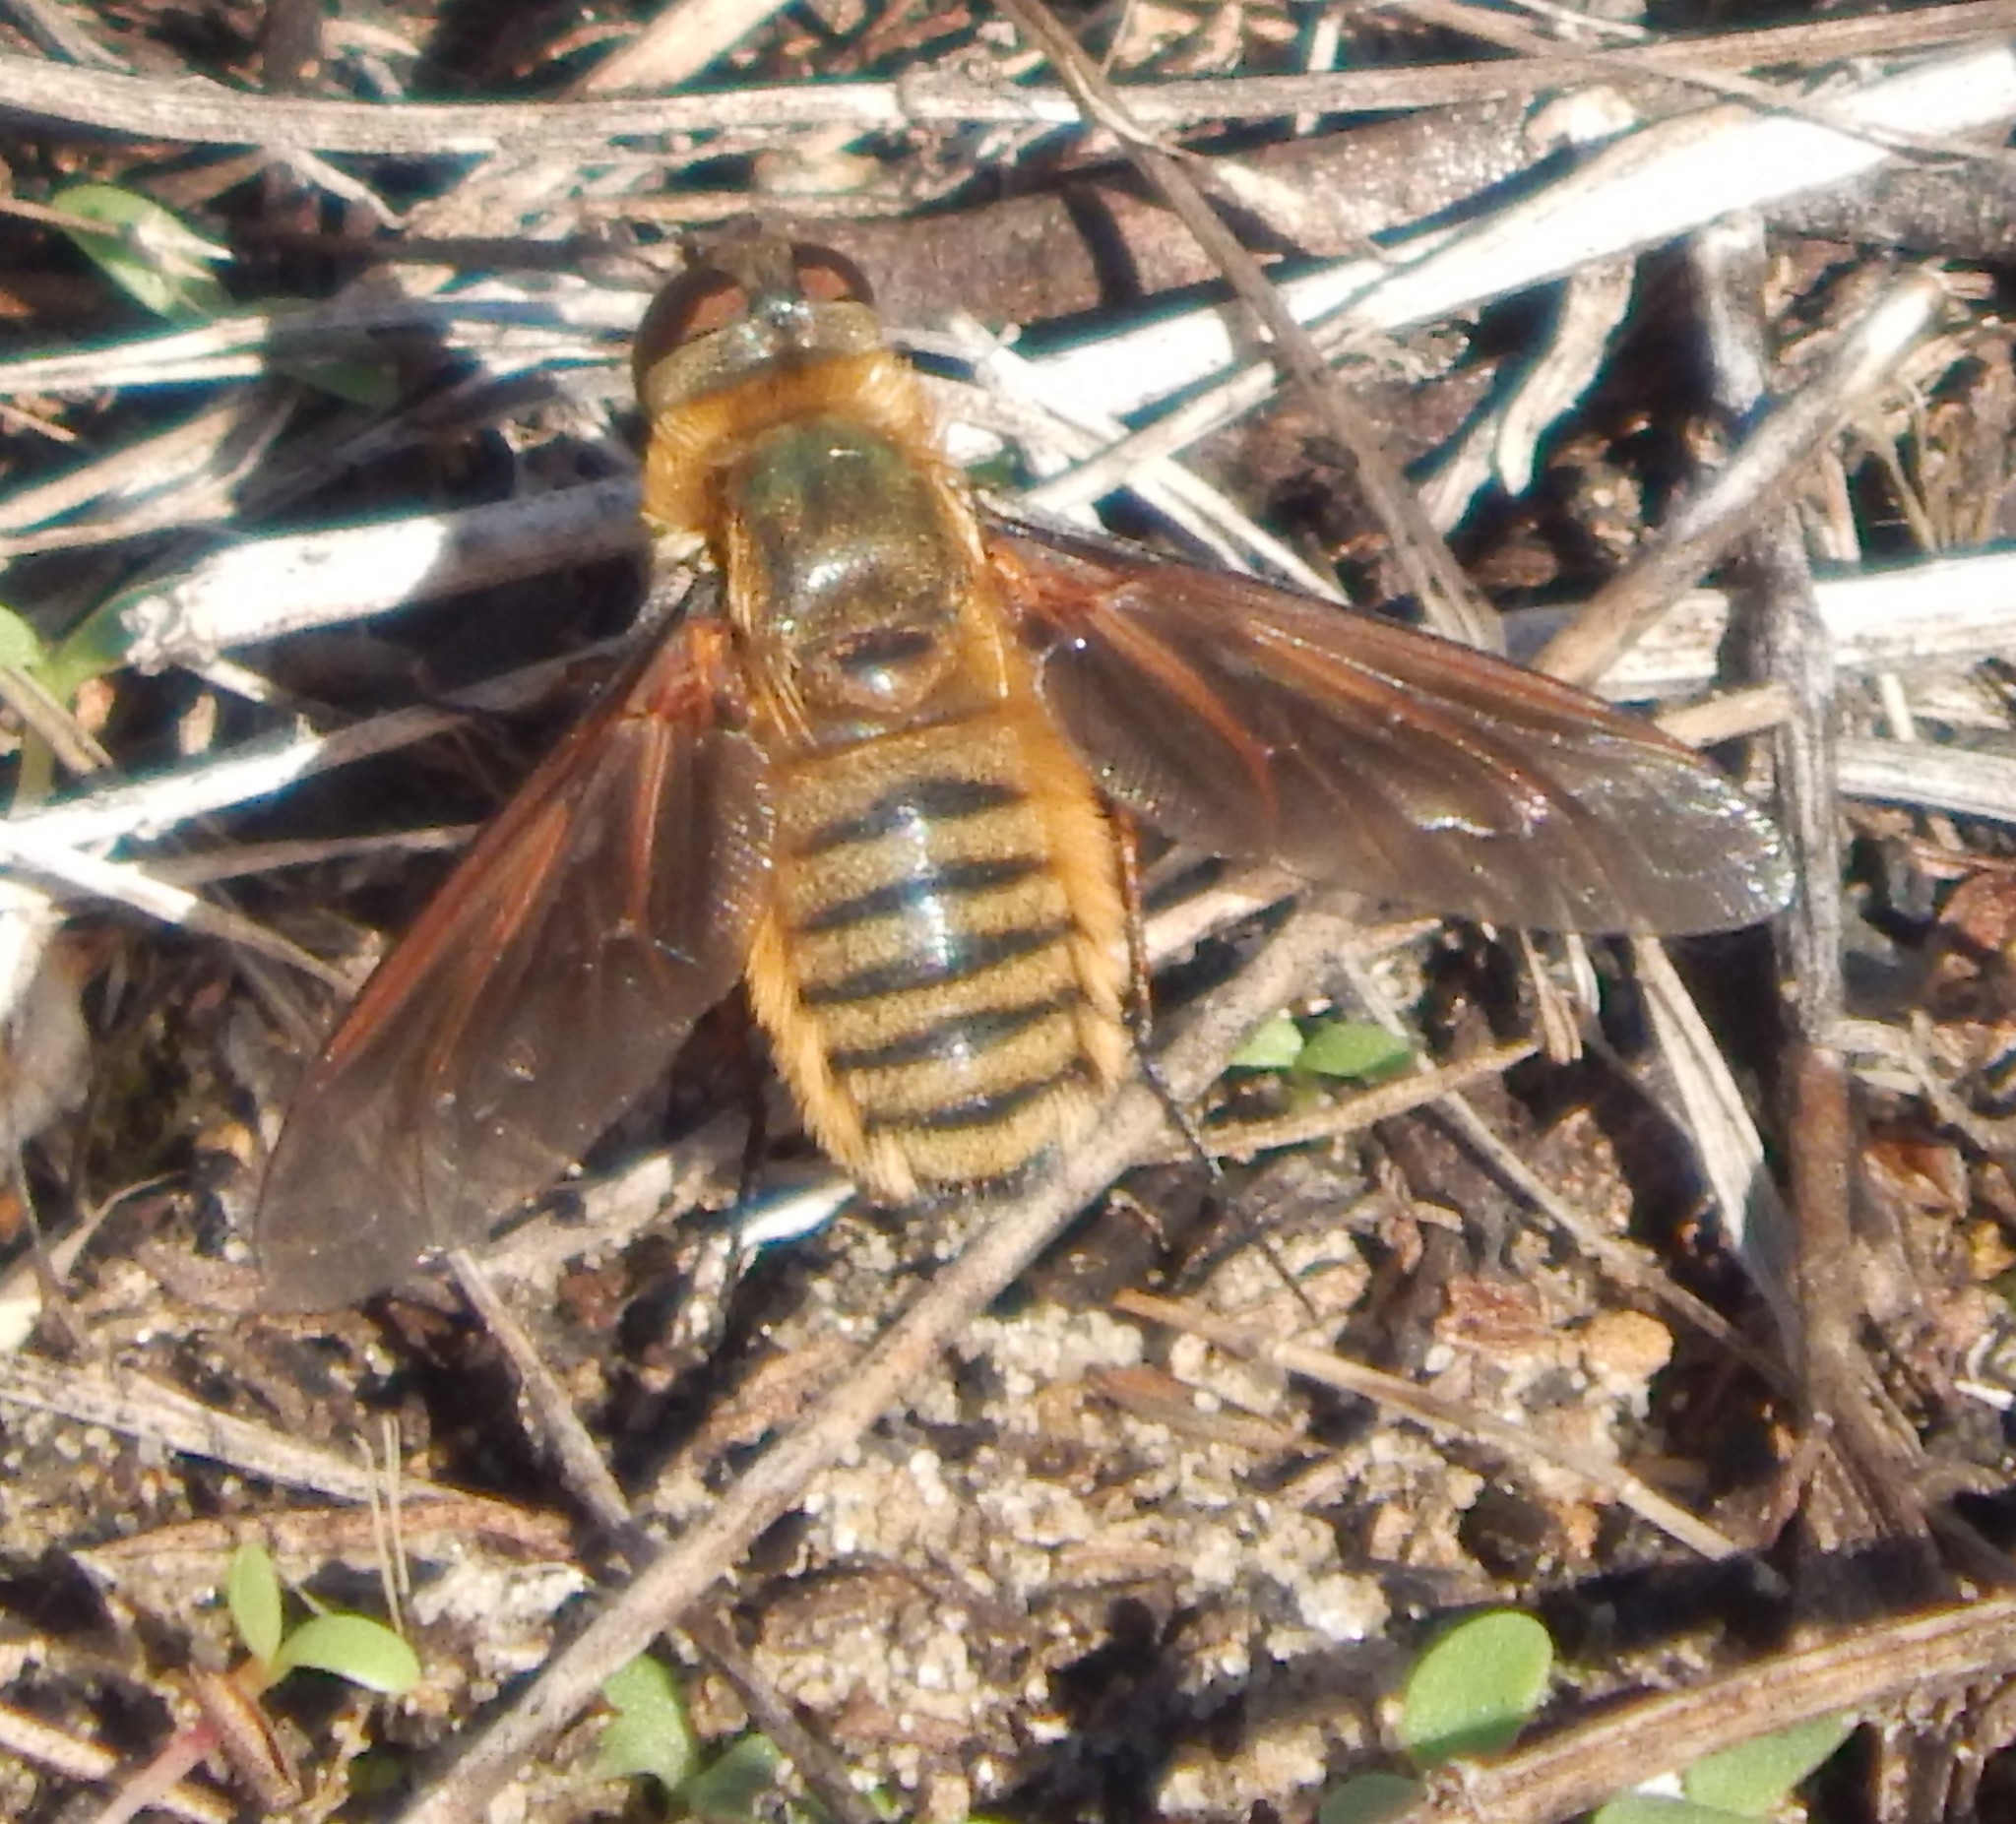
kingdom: Animalia
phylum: Arthropoda
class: Insecta
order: Diptera
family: Bombyliidae
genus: Poecilanthrax
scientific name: Poecilanthrax lucifer
